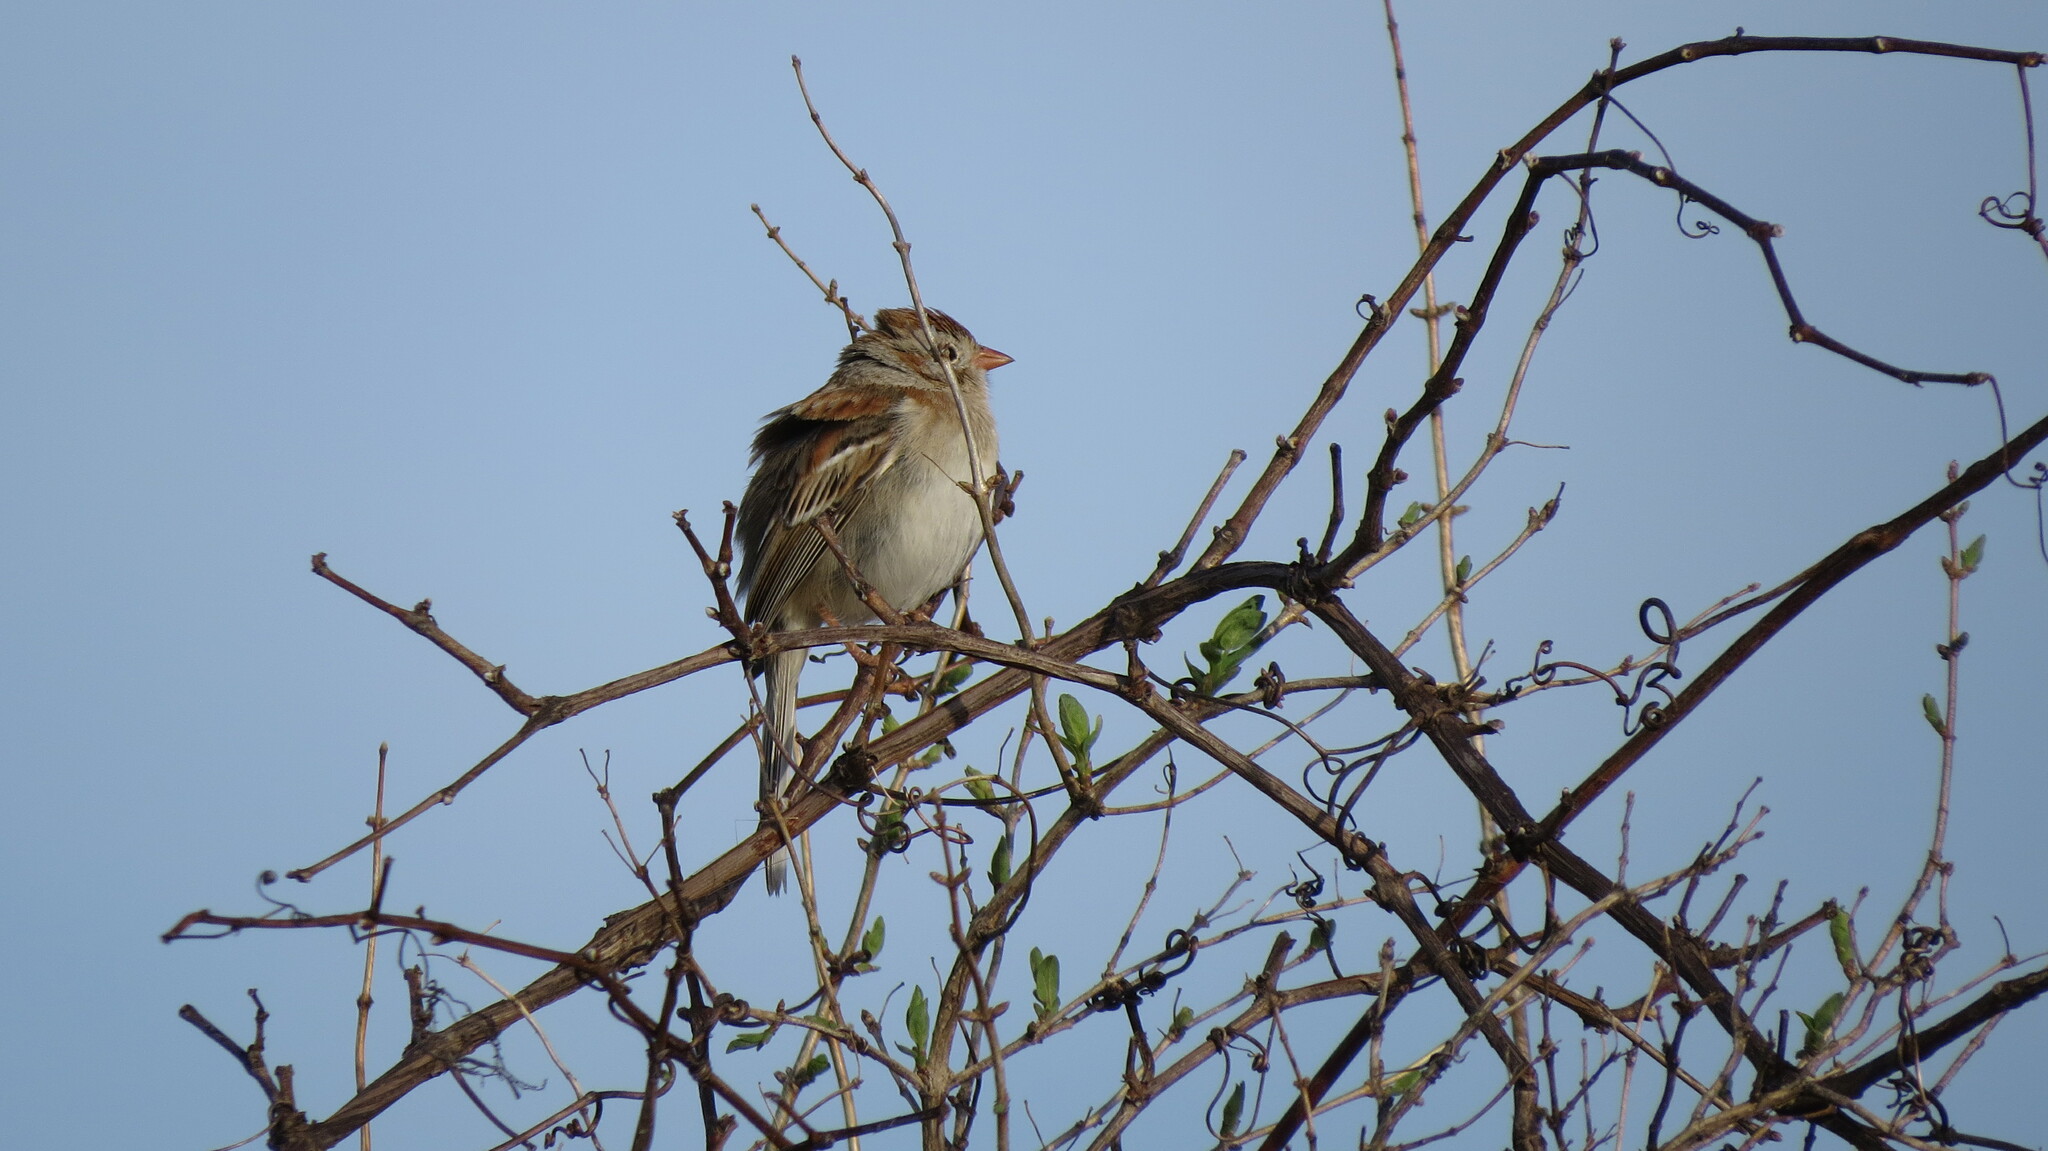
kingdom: Animalia
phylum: Chordata
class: Aves
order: Passeriformes
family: Passerellidae
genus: Spizella
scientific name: Spizella pusilla
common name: Field sparrow
